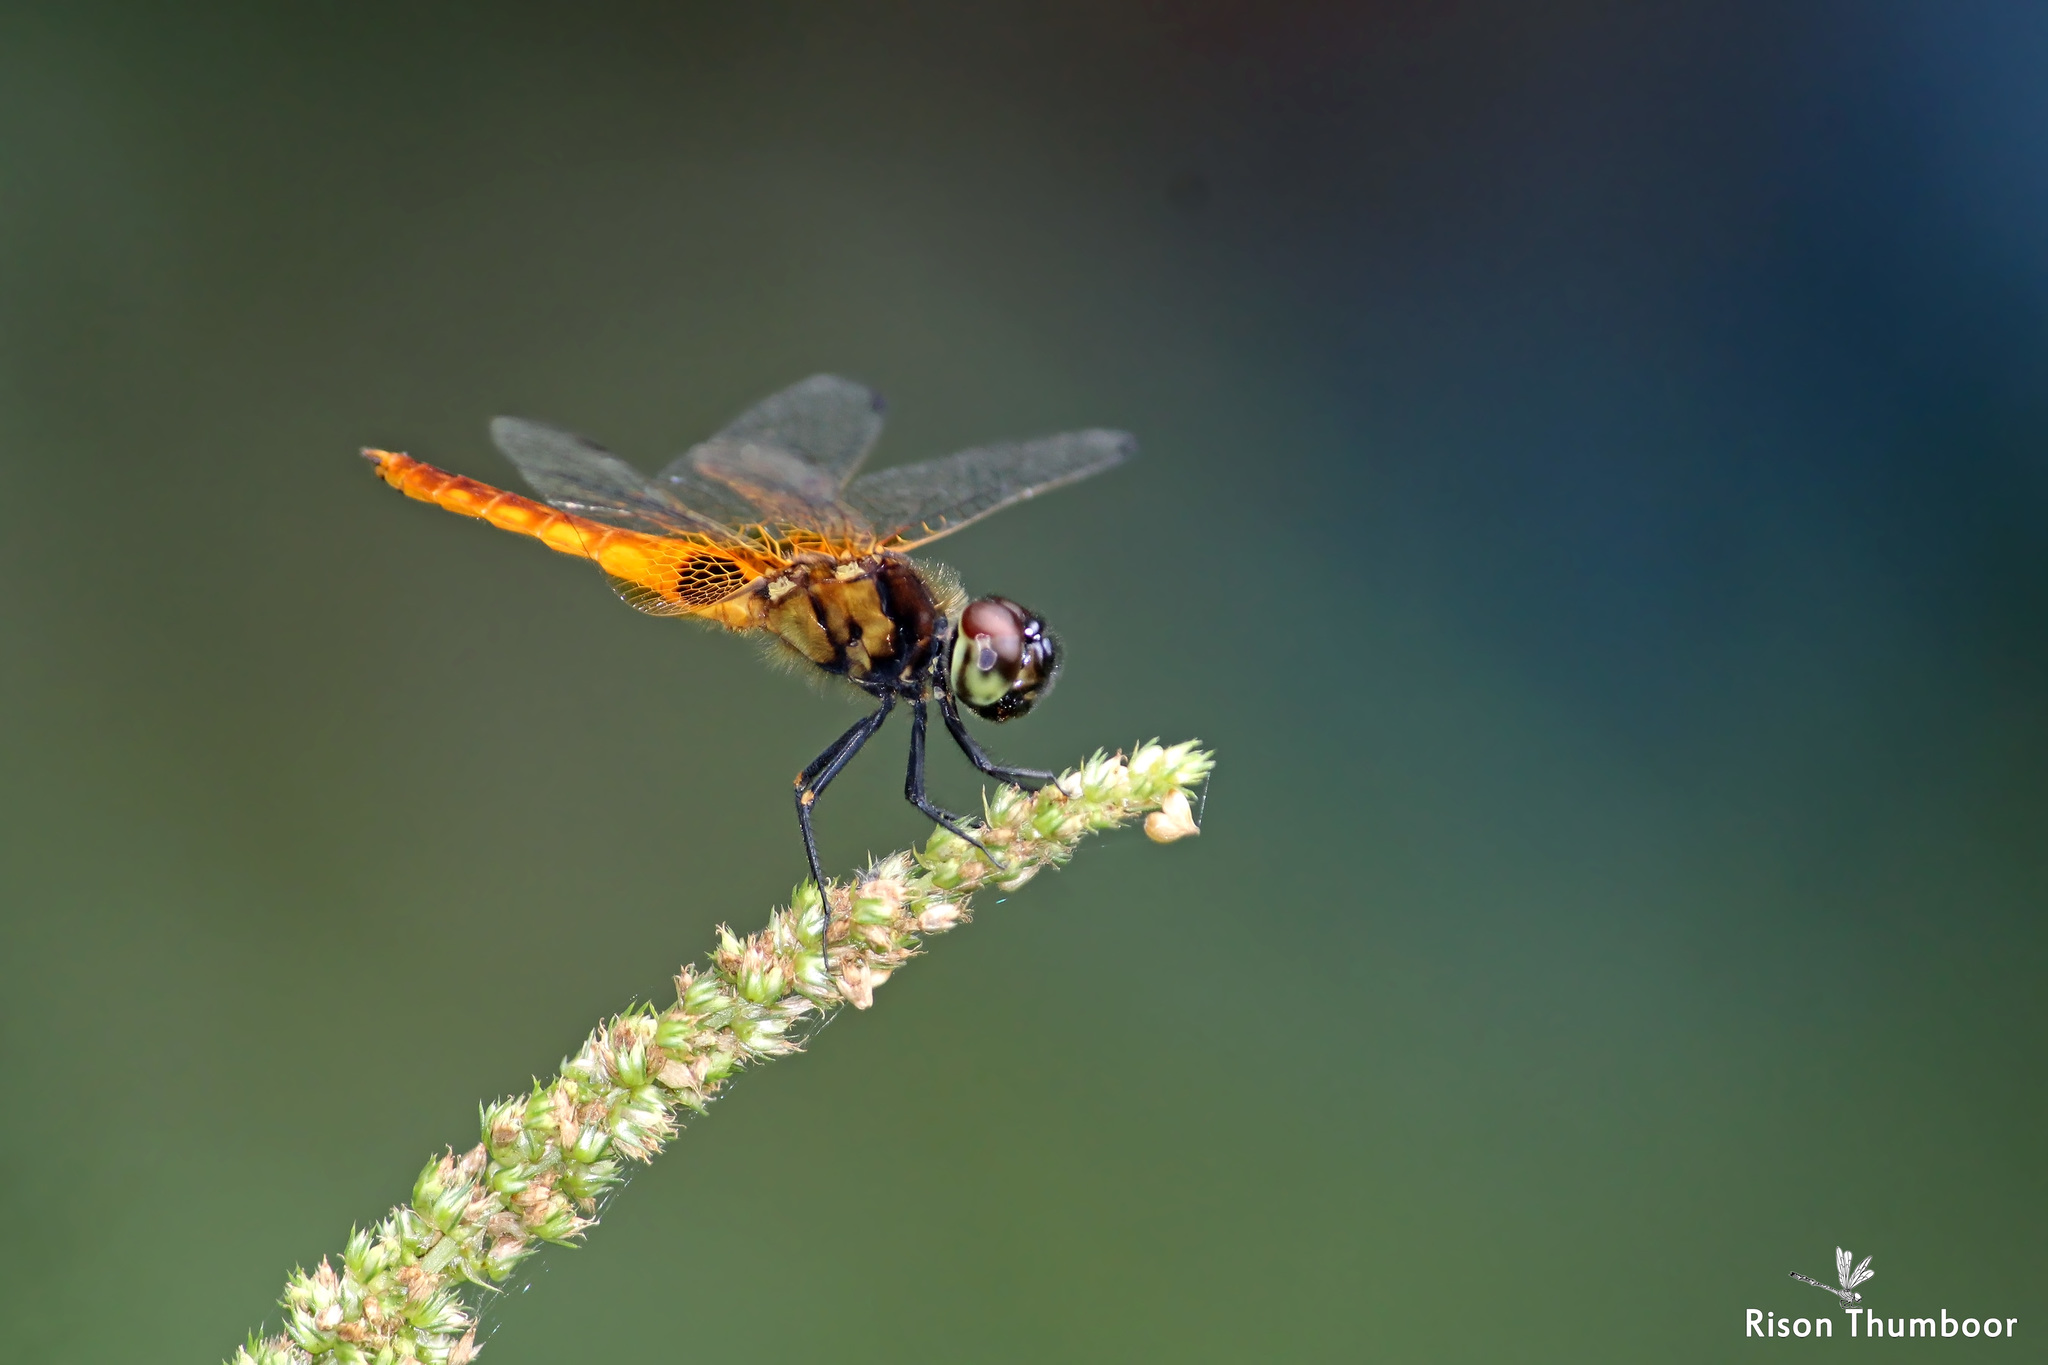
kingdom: Animalia
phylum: Arthropoda
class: Insecta
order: Odonata
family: Libellulidae
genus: Aethriamanta
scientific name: Aethriamanta brevipennis
